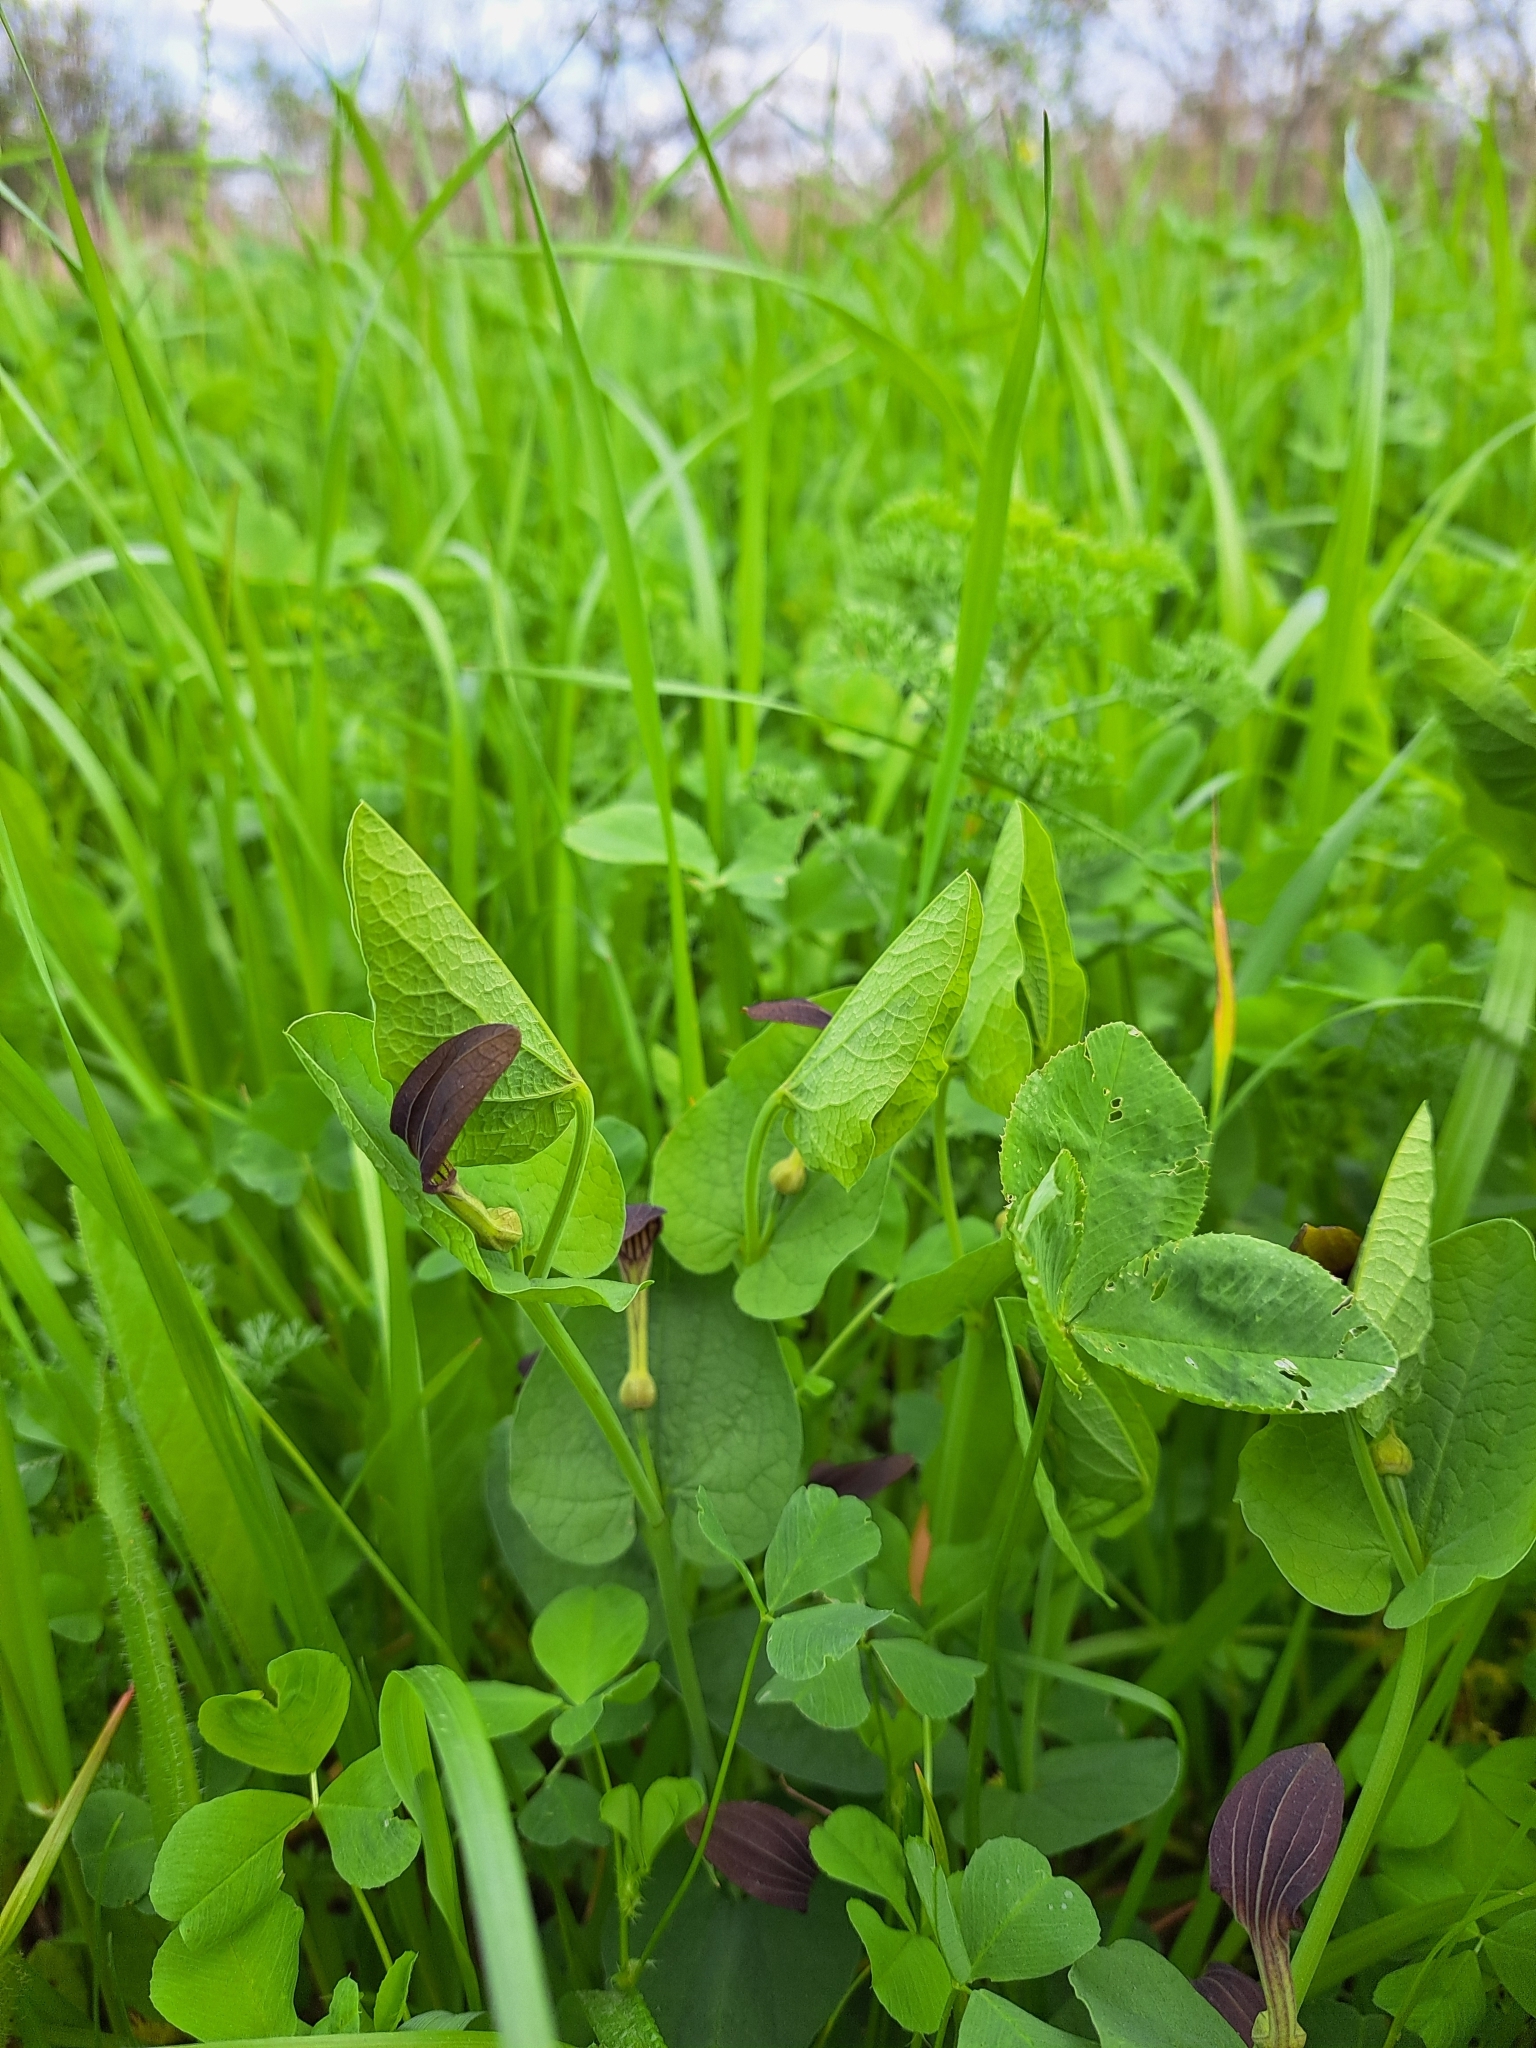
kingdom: Plantae
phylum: Tracheophyta
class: Magnoliopsida
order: Piperales
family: Aristolochiaceae
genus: Aristolochia
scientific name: Aristolochia rotunda
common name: Smearwort
